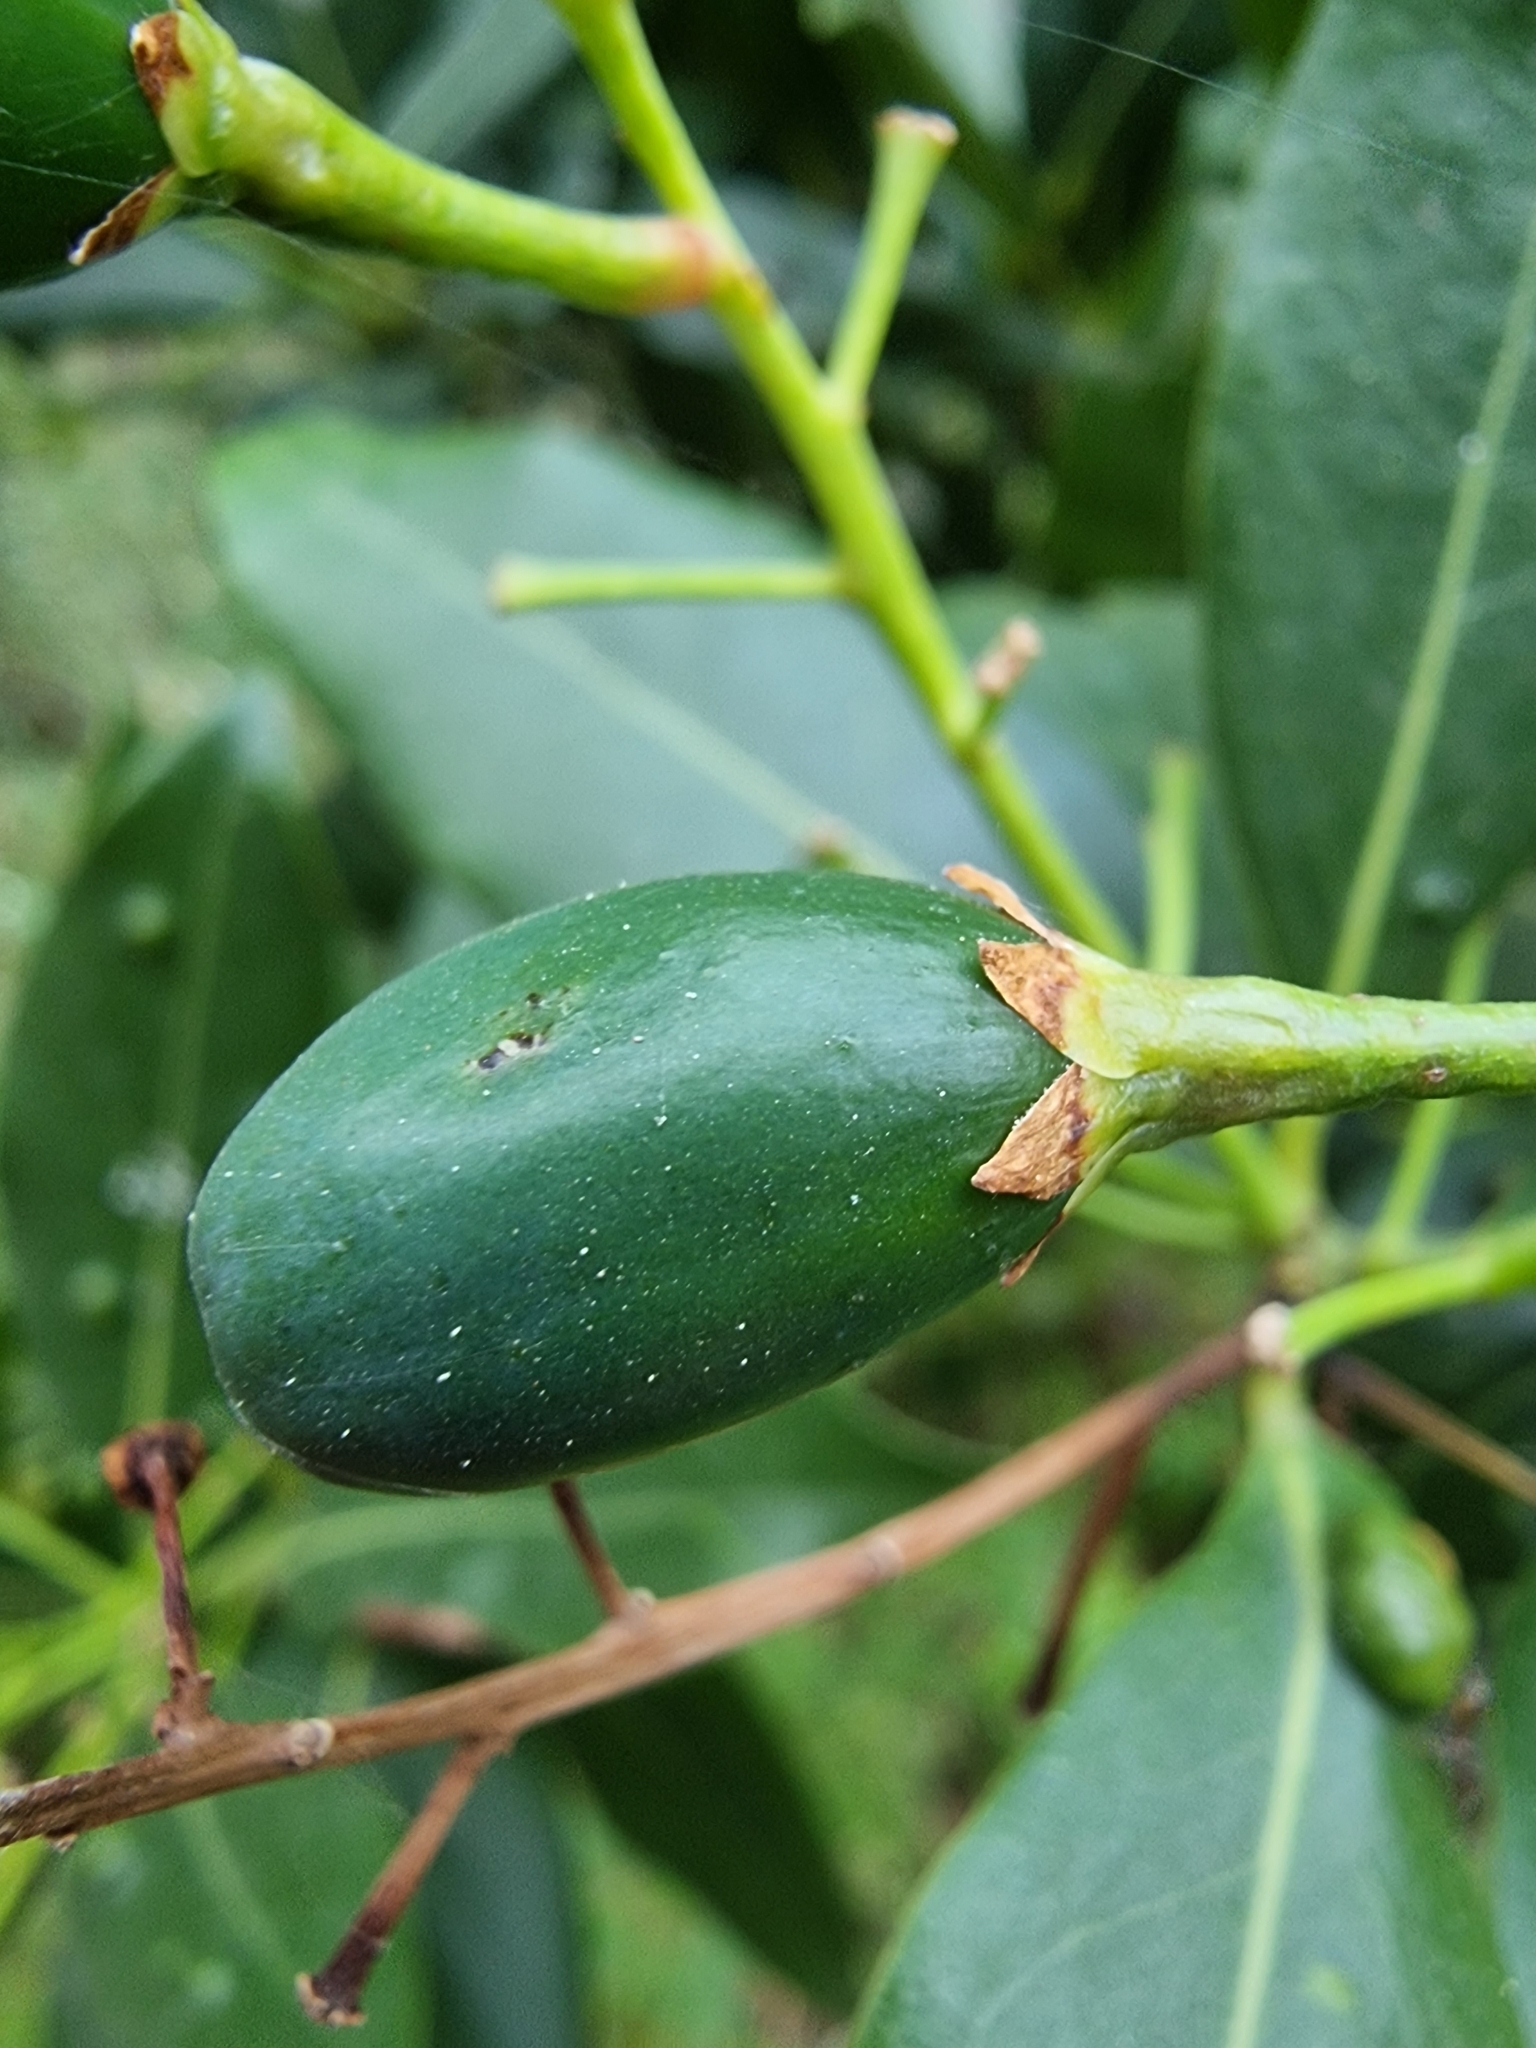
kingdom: Plantae
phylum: Tracheophyta
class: Magnoliopsida
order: Laurales
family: Lauraceae
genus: Apollonias
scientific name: Apollonias barbujana
